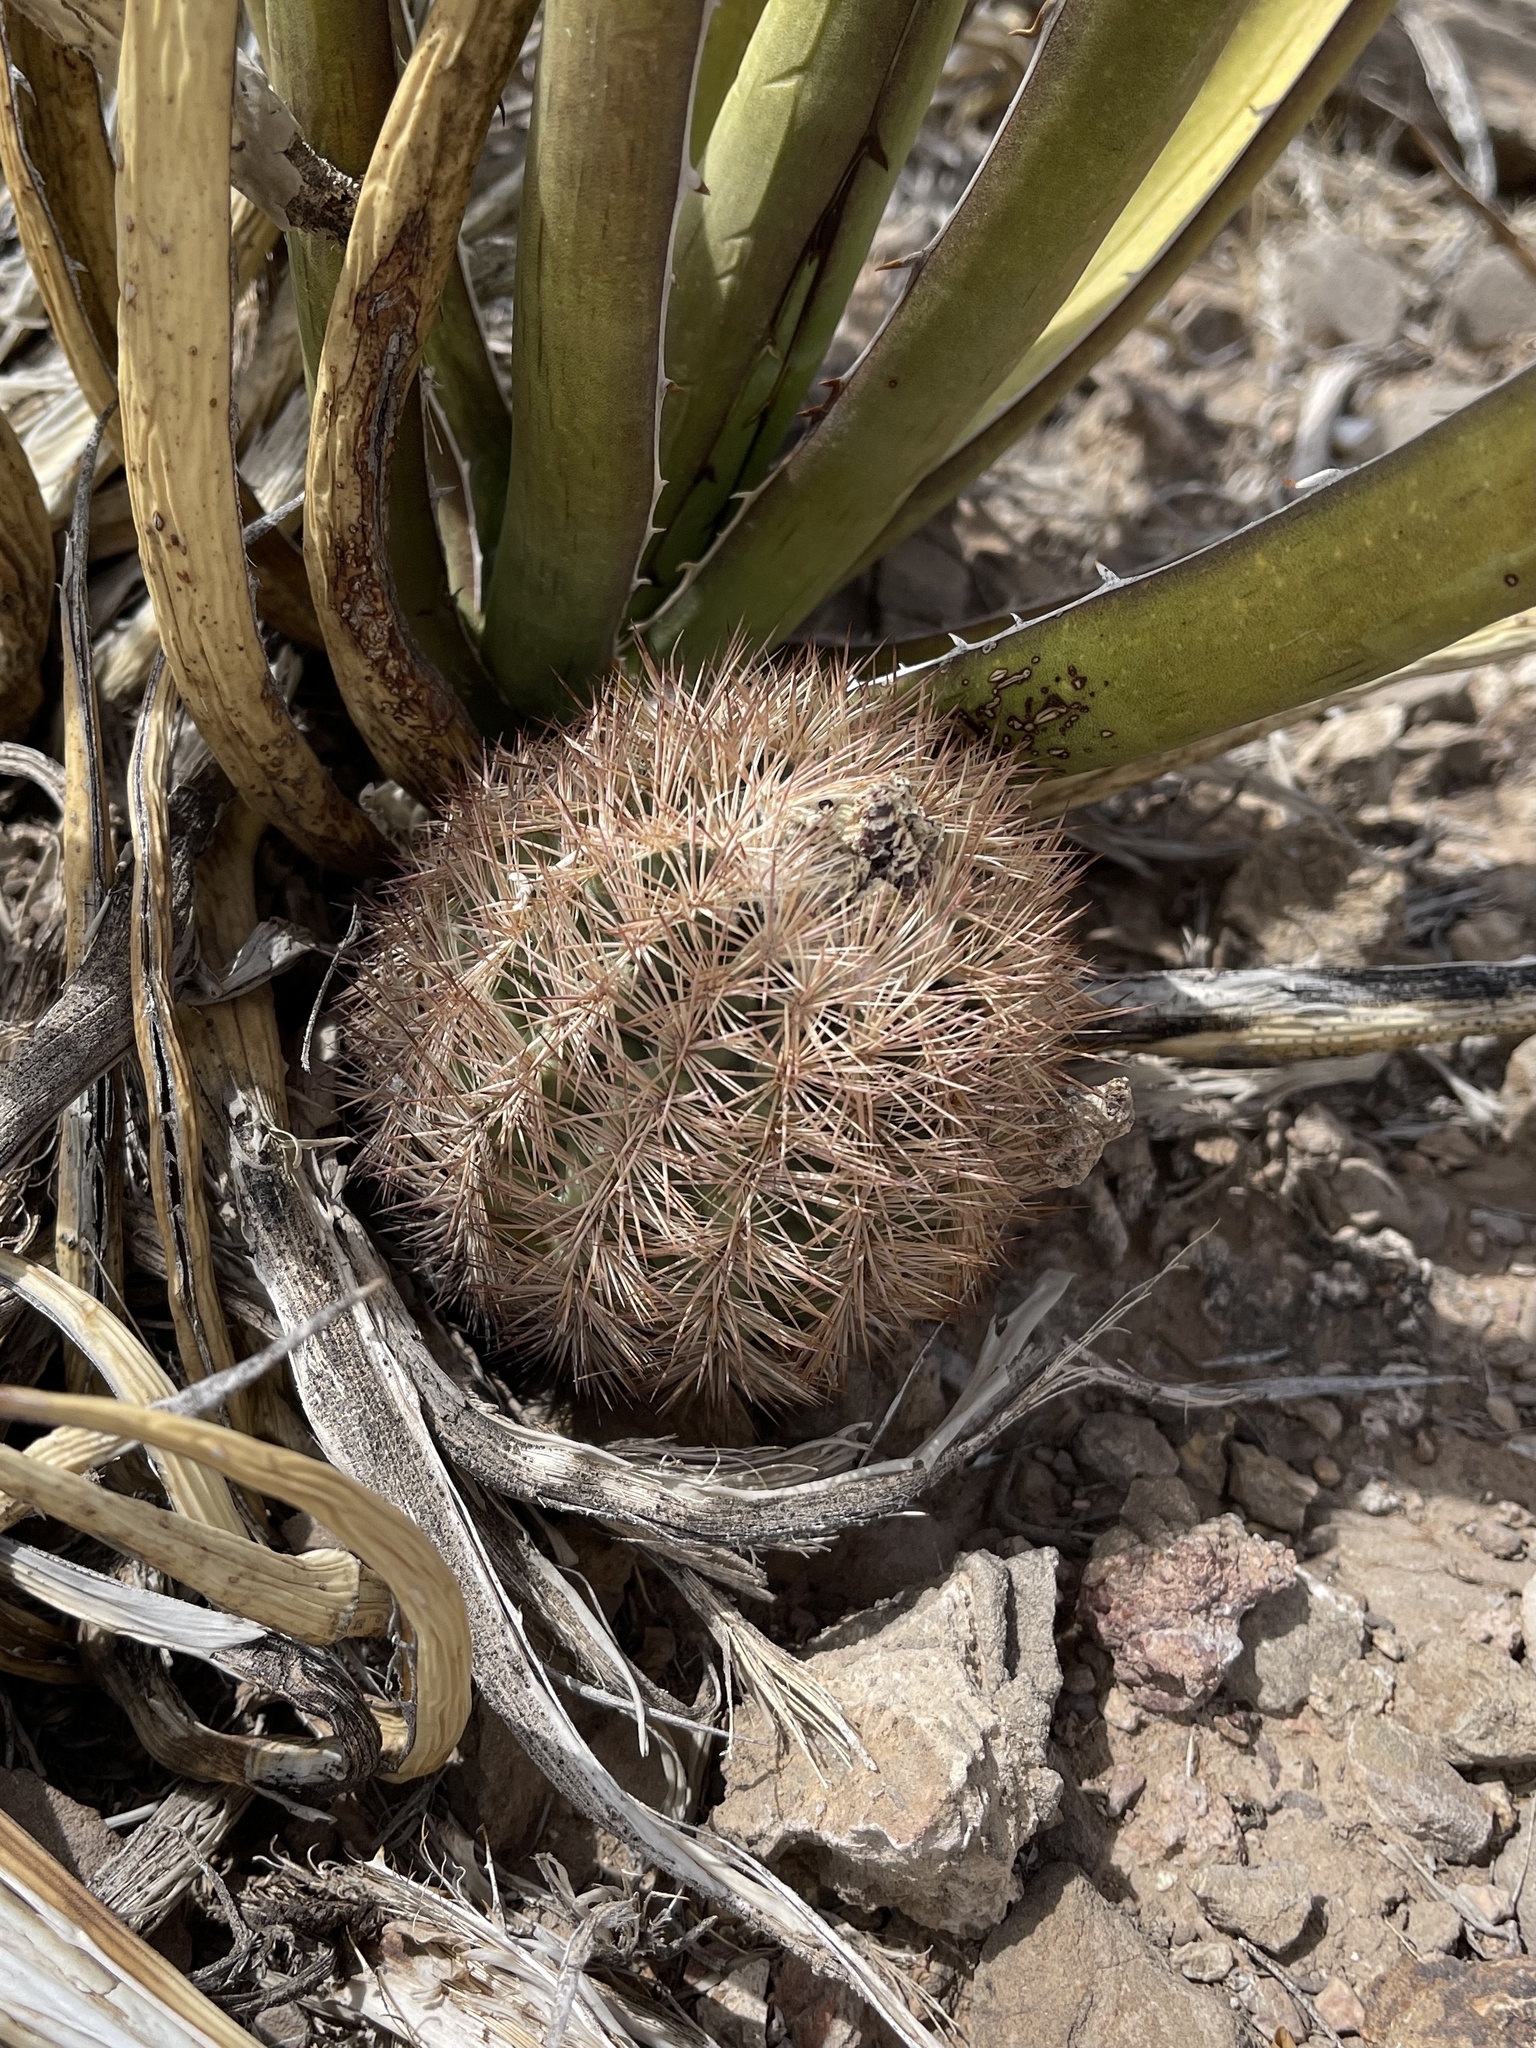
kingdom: Plantae
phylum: Tracheophyta
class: Magnoliopsida
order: Caryophyllales
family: Cactaceae
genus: Sclerocactus
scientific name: Sclerocactus intertextus
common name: White fish-hook cactus
